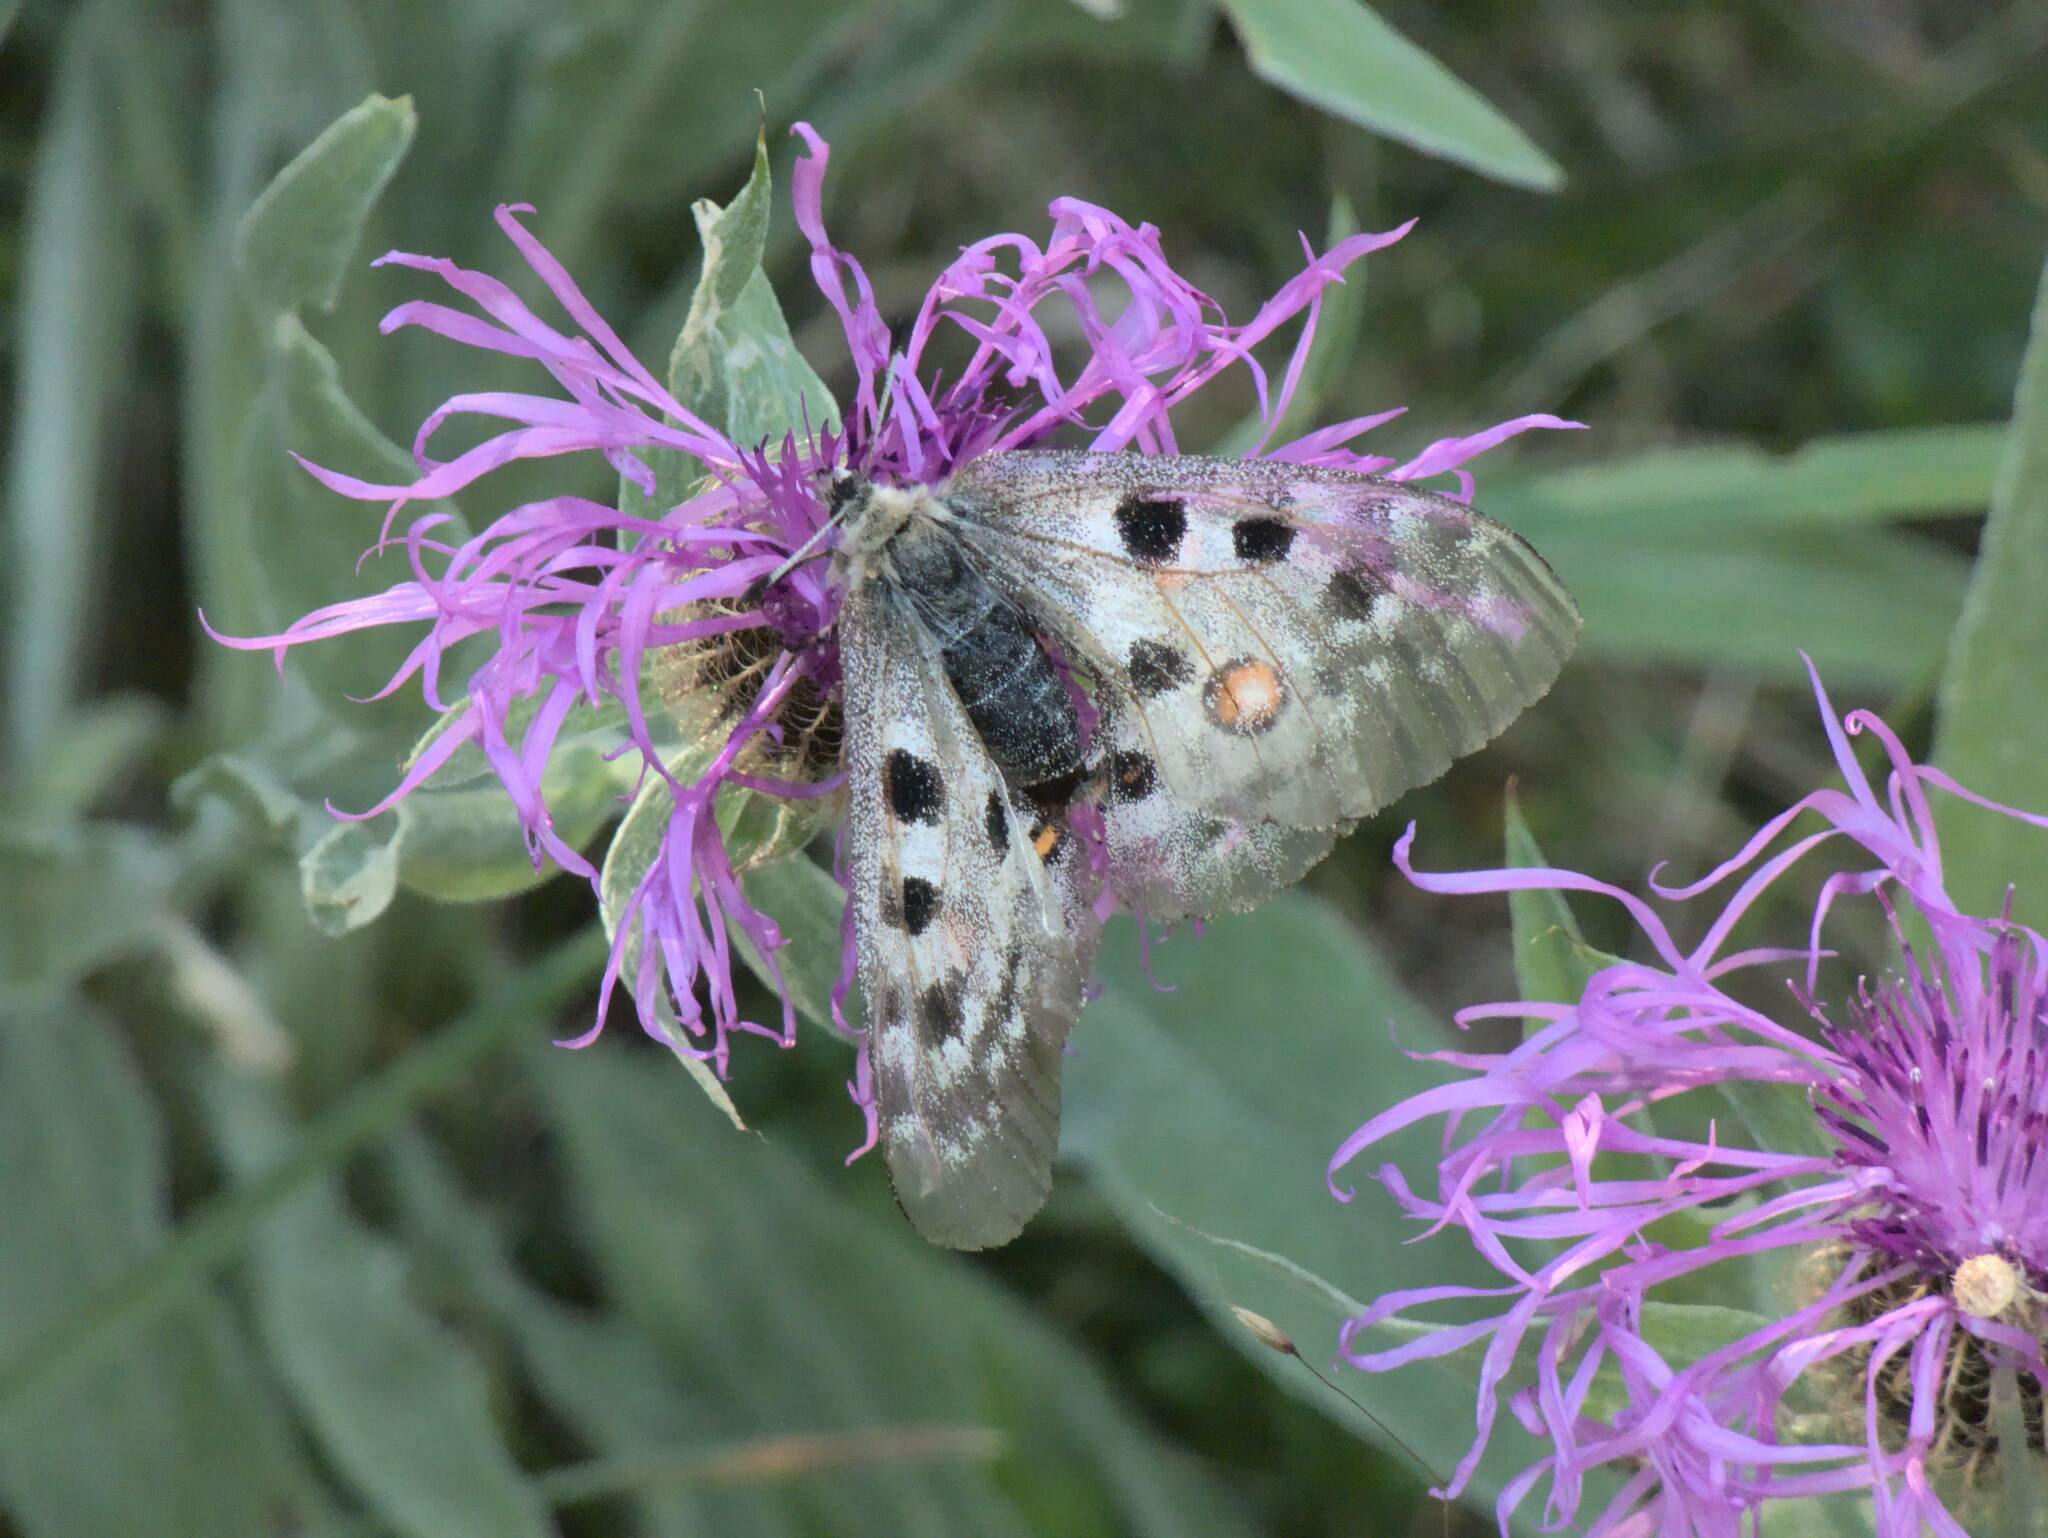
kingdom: Animalia
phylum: Arthropoda
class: Insecta
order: Lepidoptera
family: Papilionidae
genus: Parnassius
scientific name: Parnassius apollo
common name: Apollo
